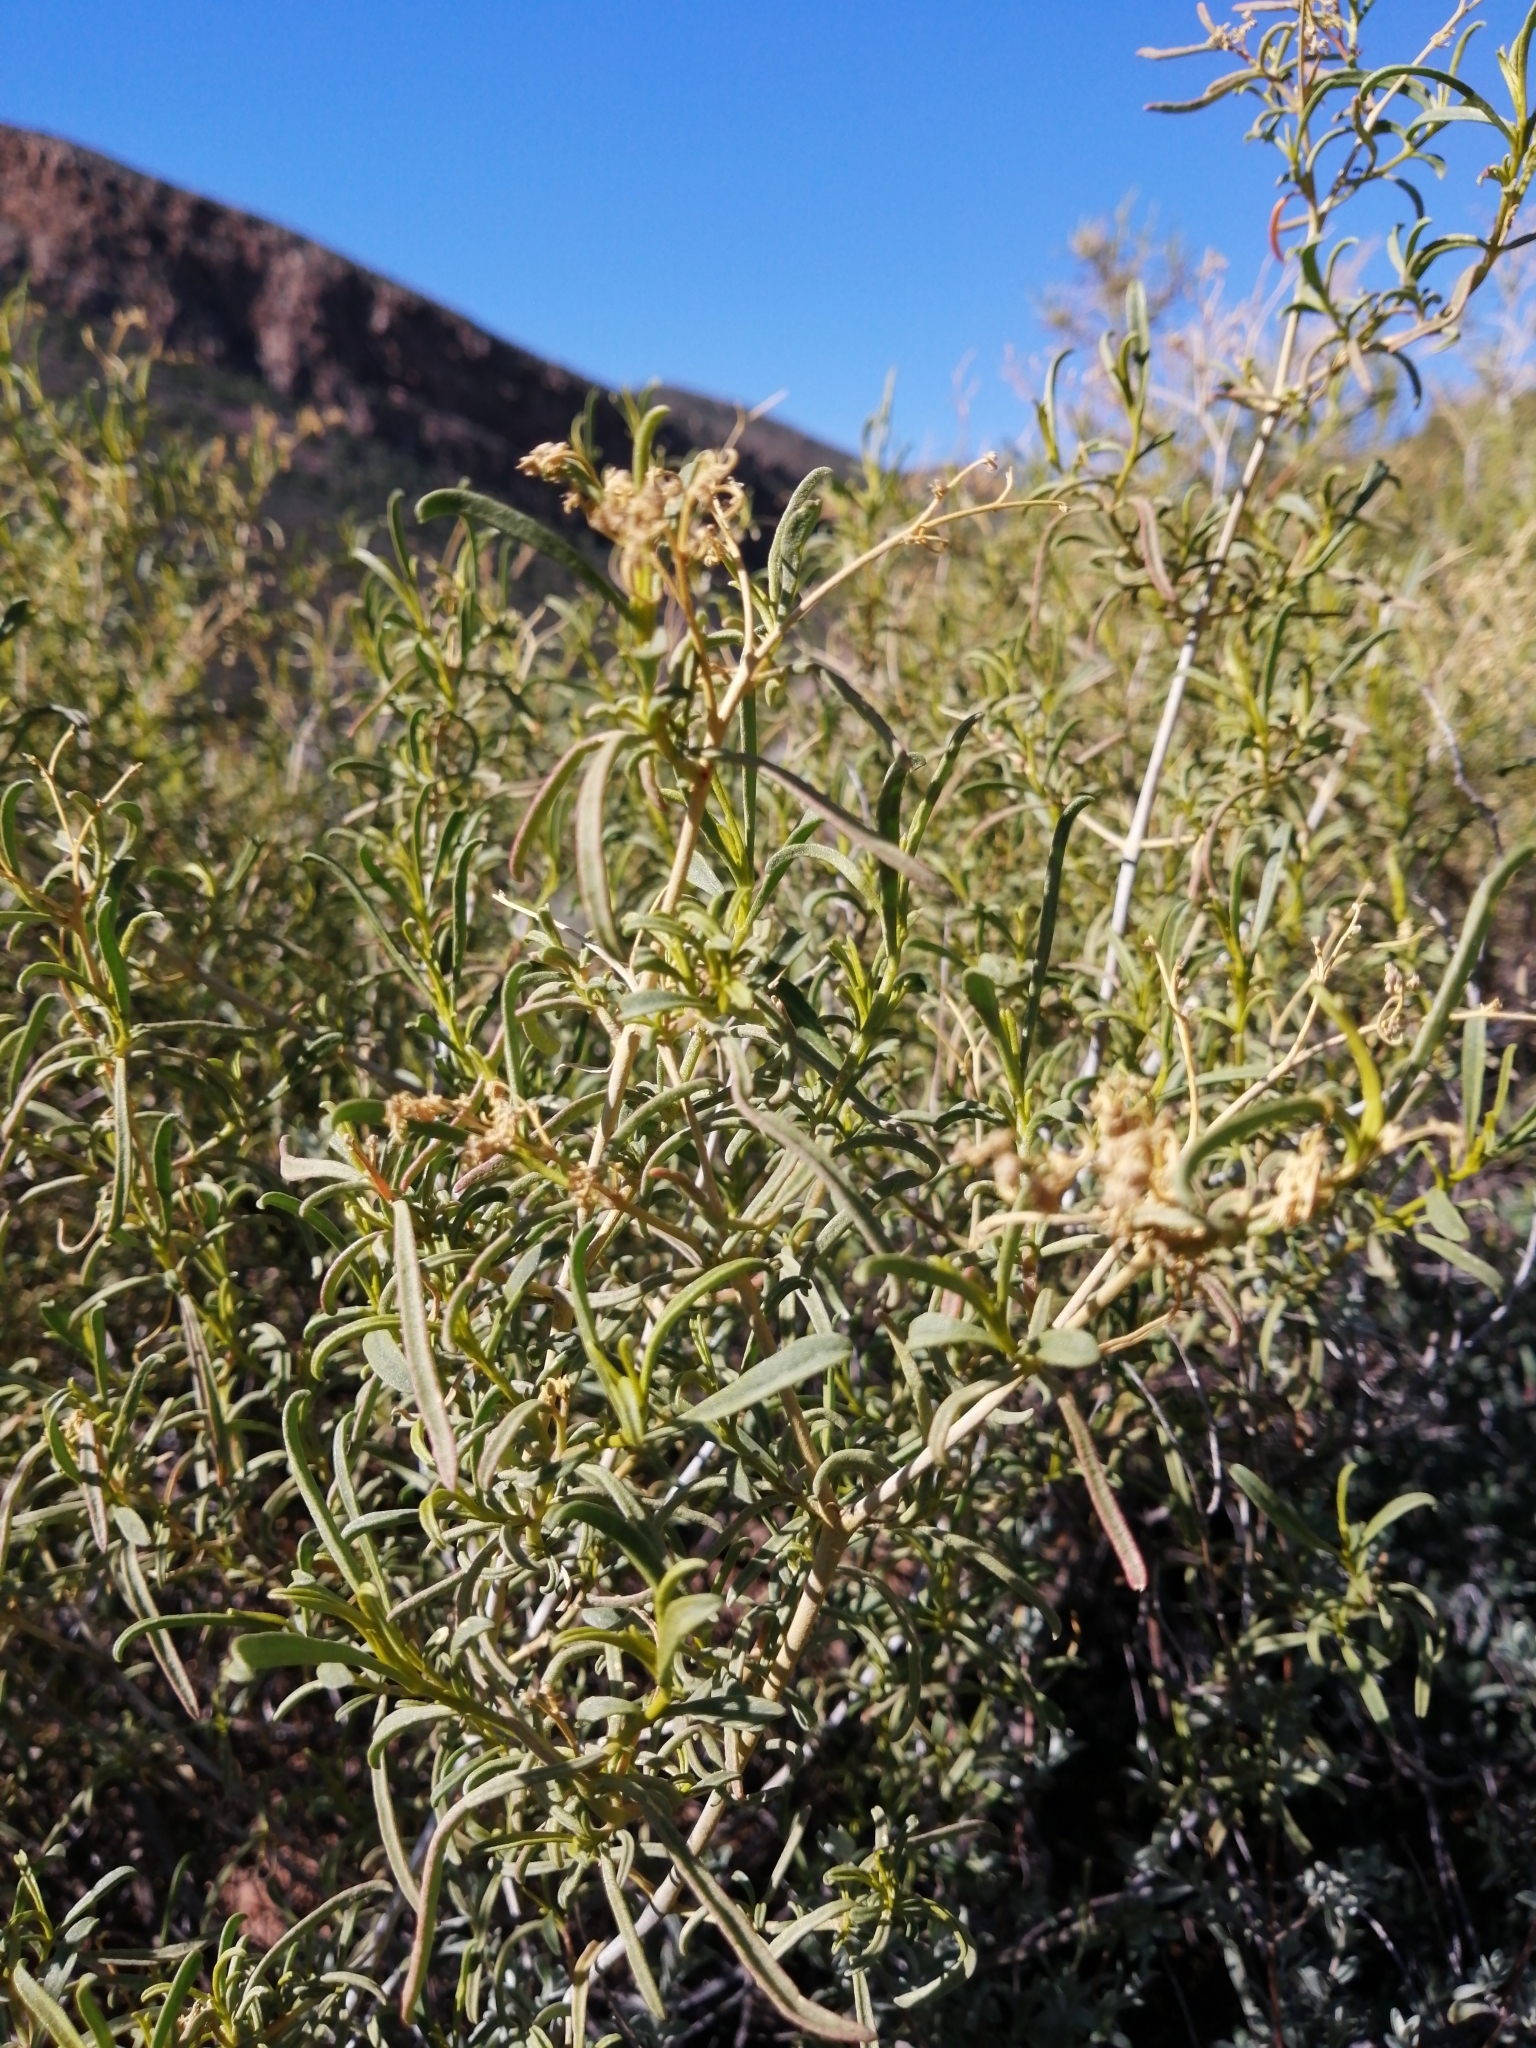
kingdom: Plantae
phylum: Tracheophyta
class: Magnoliopsida
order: Caryophyllales
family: Aizoaceae
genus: Aizoon
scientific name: Aizoon africanum
